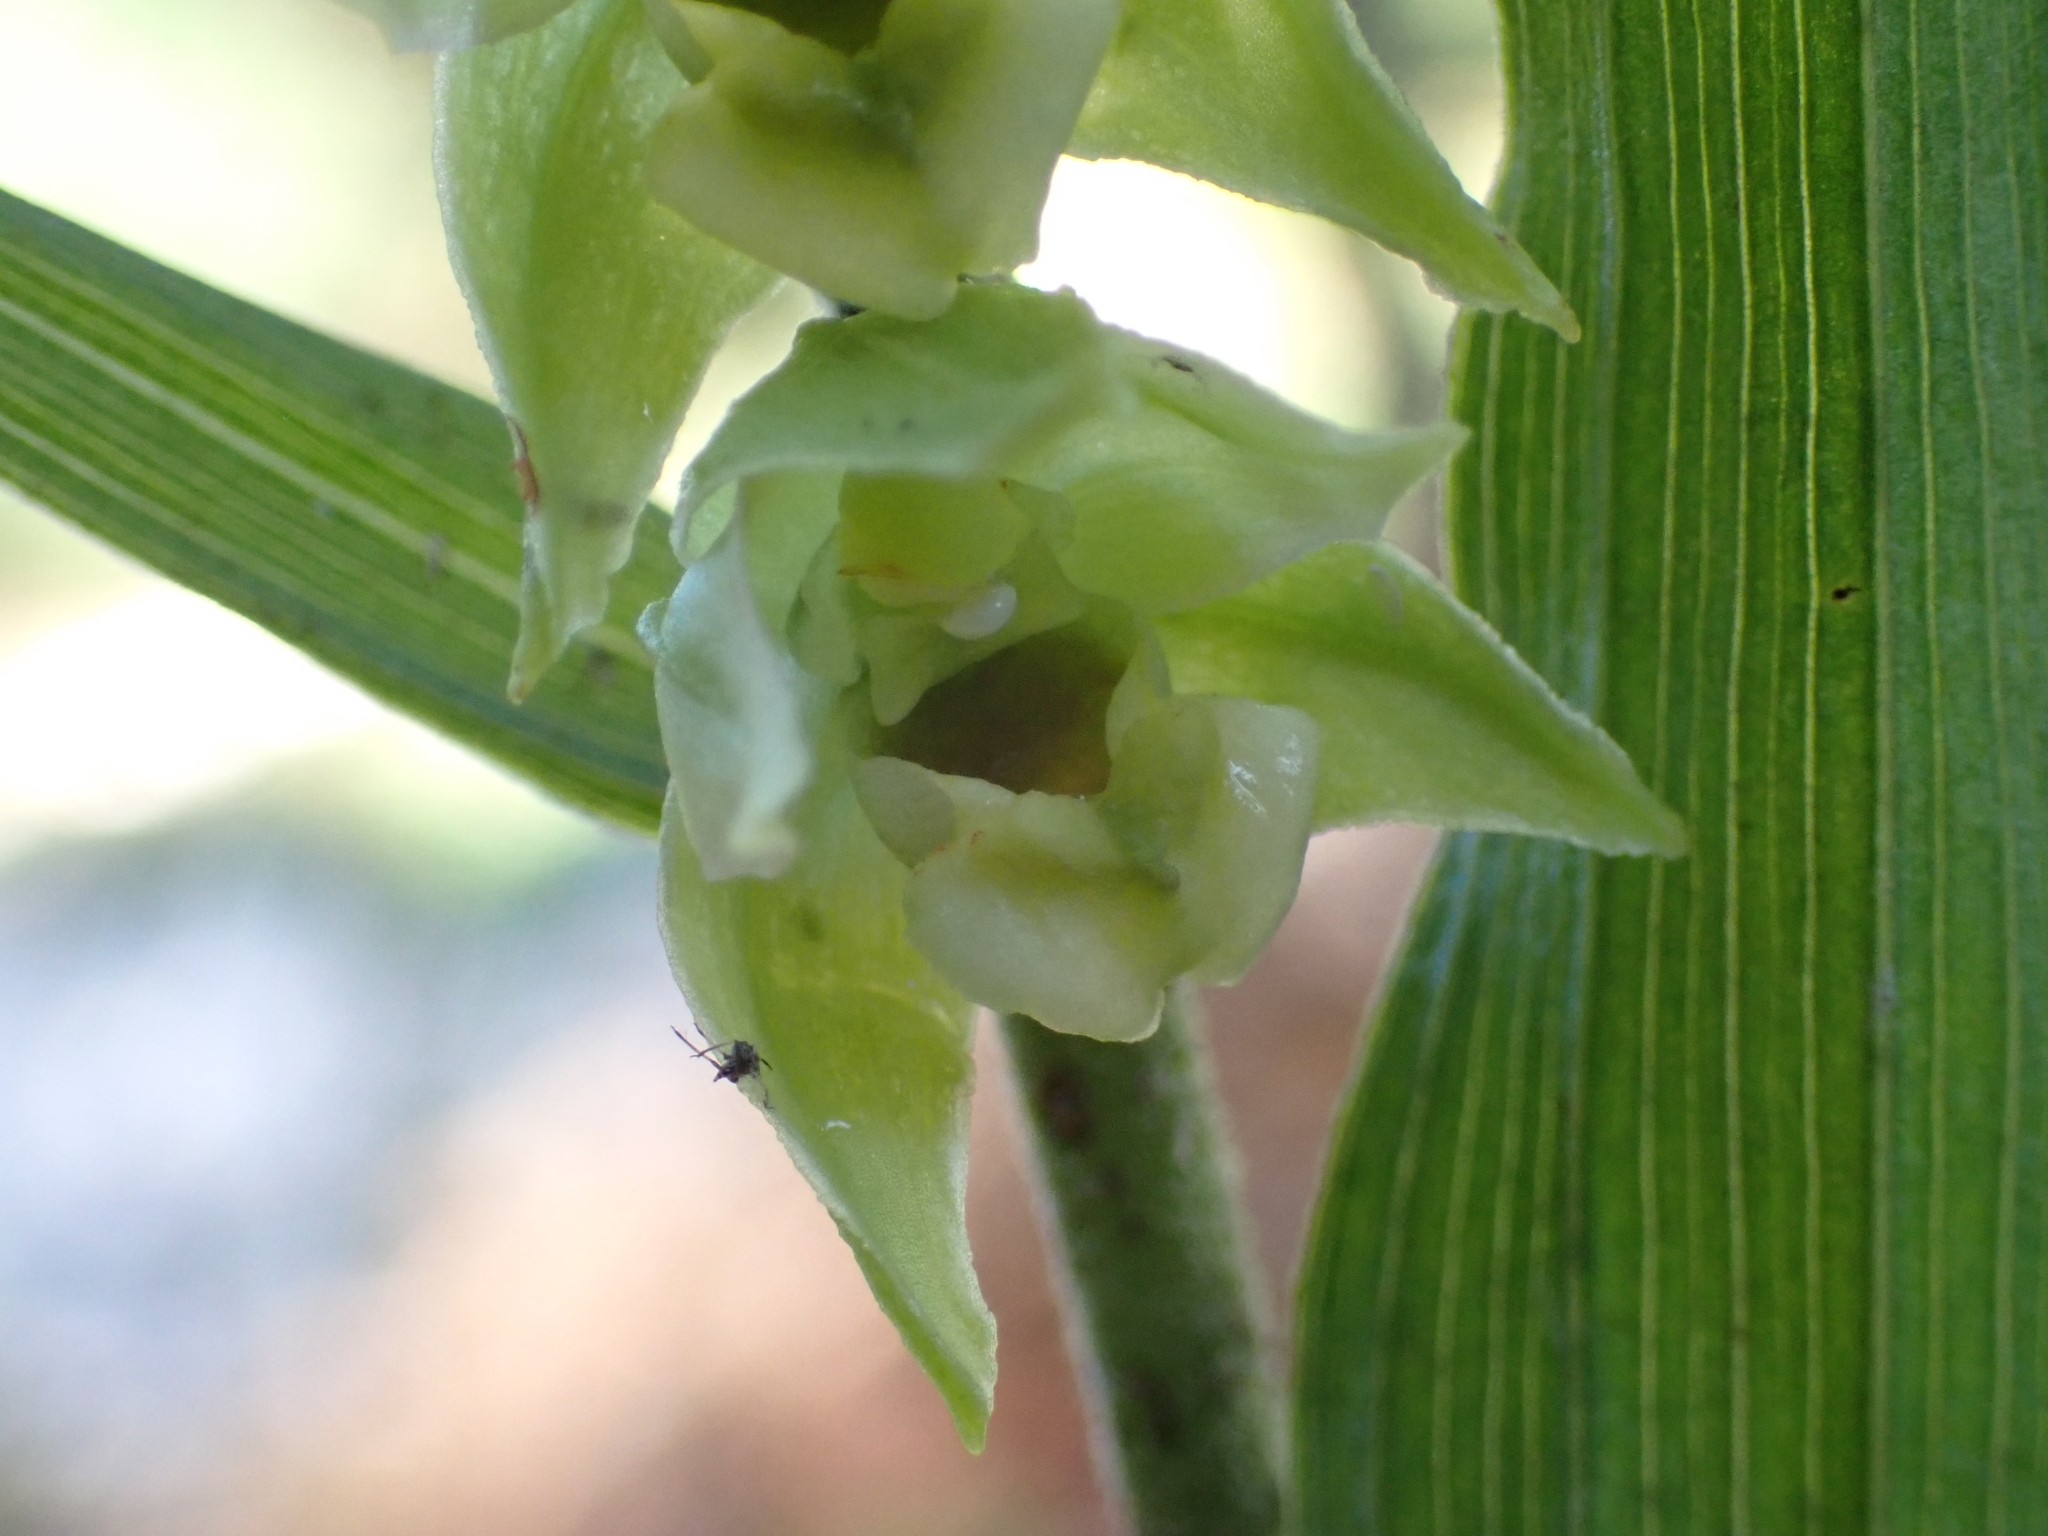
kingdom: Plantae
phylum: Tracheophyta
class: Liliopsida
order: Asparagales
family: Orchidaceae
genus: Epipactis
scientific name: Epipactis helleborine
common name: Broad-leaved helleborine
